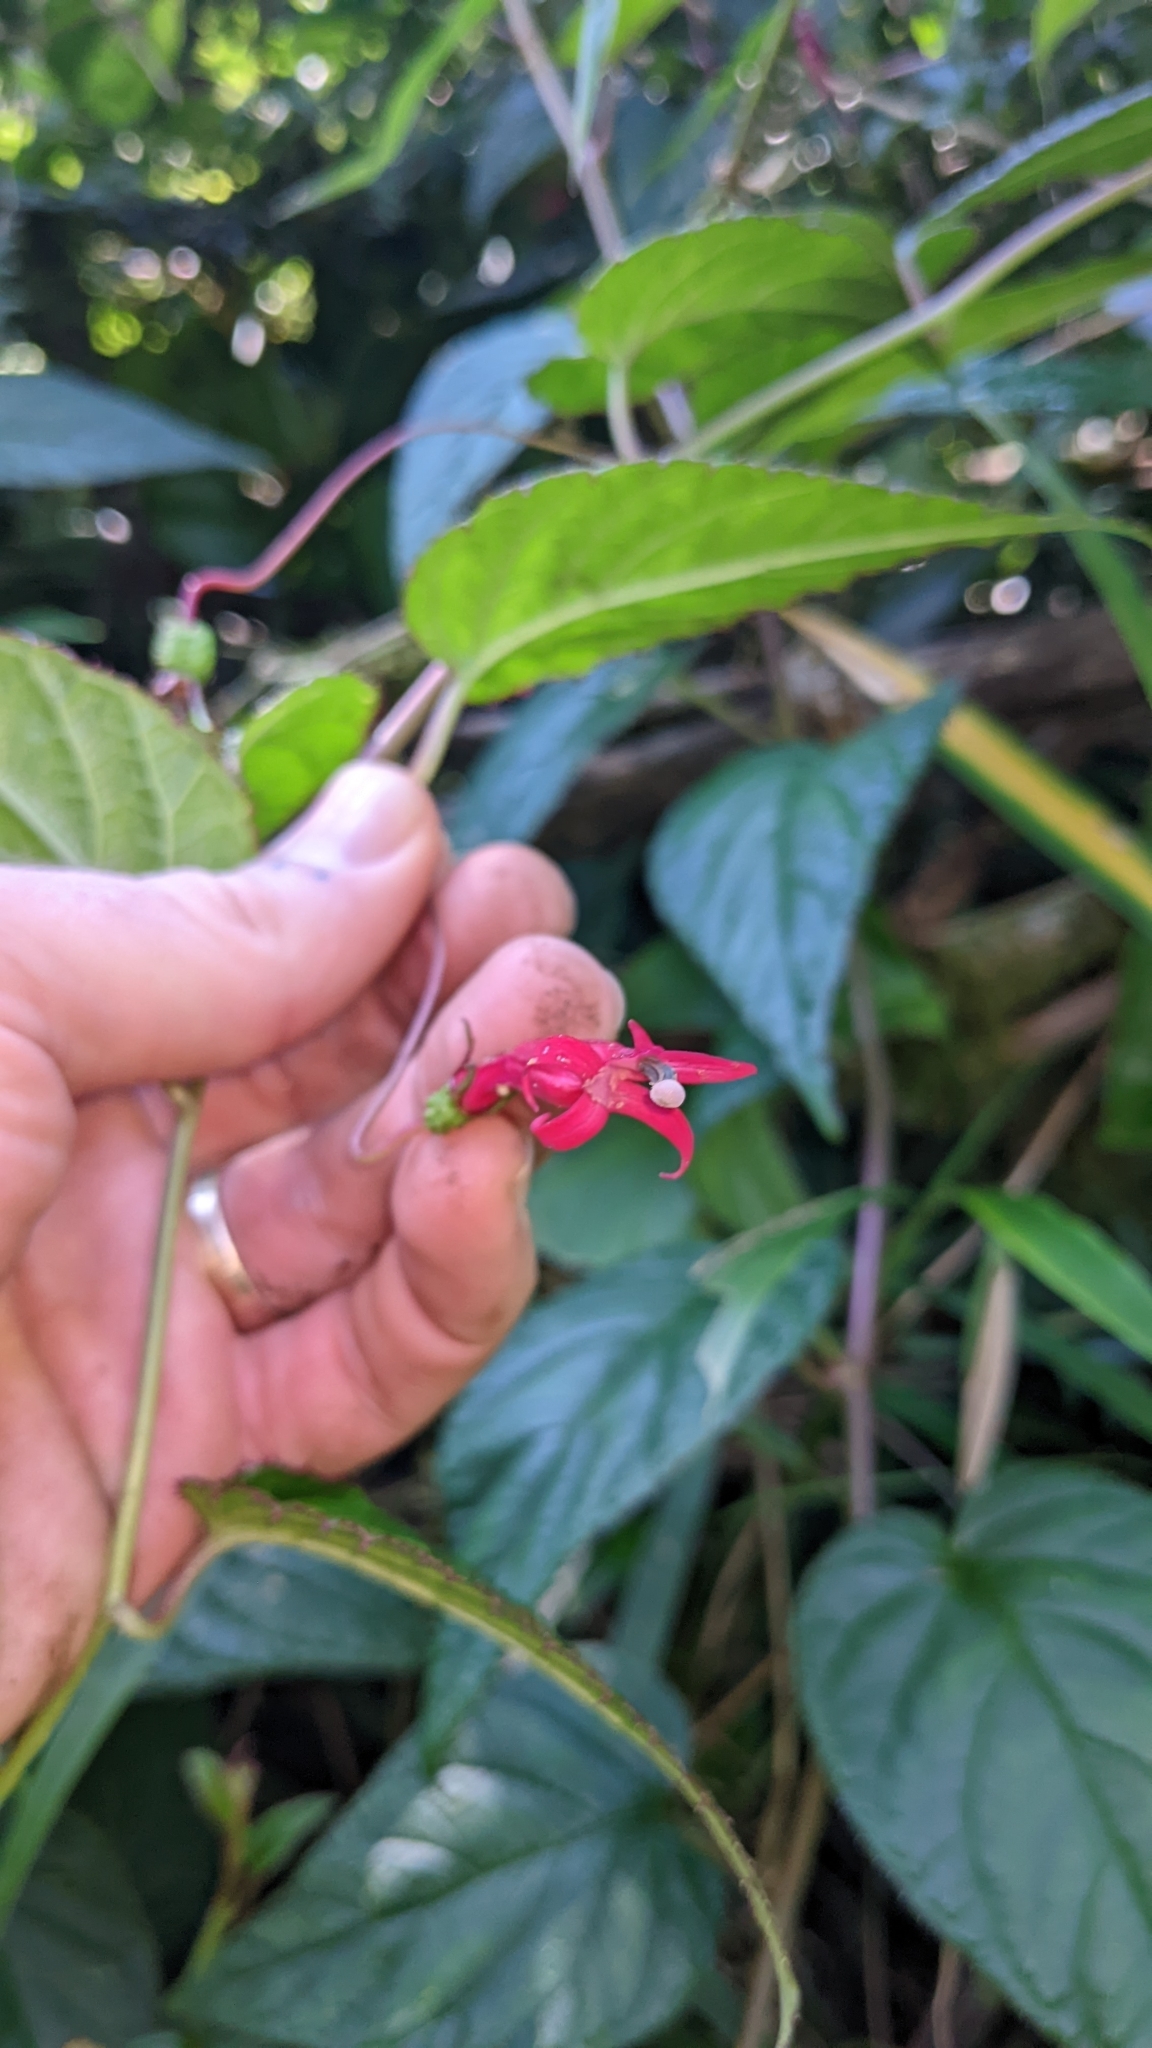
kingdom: Plantae
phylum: Tracheophyta
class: Magnoliopsida
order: Asterales
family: Campanulaceae
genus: Centropogon
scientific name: Centropogon costaricae
